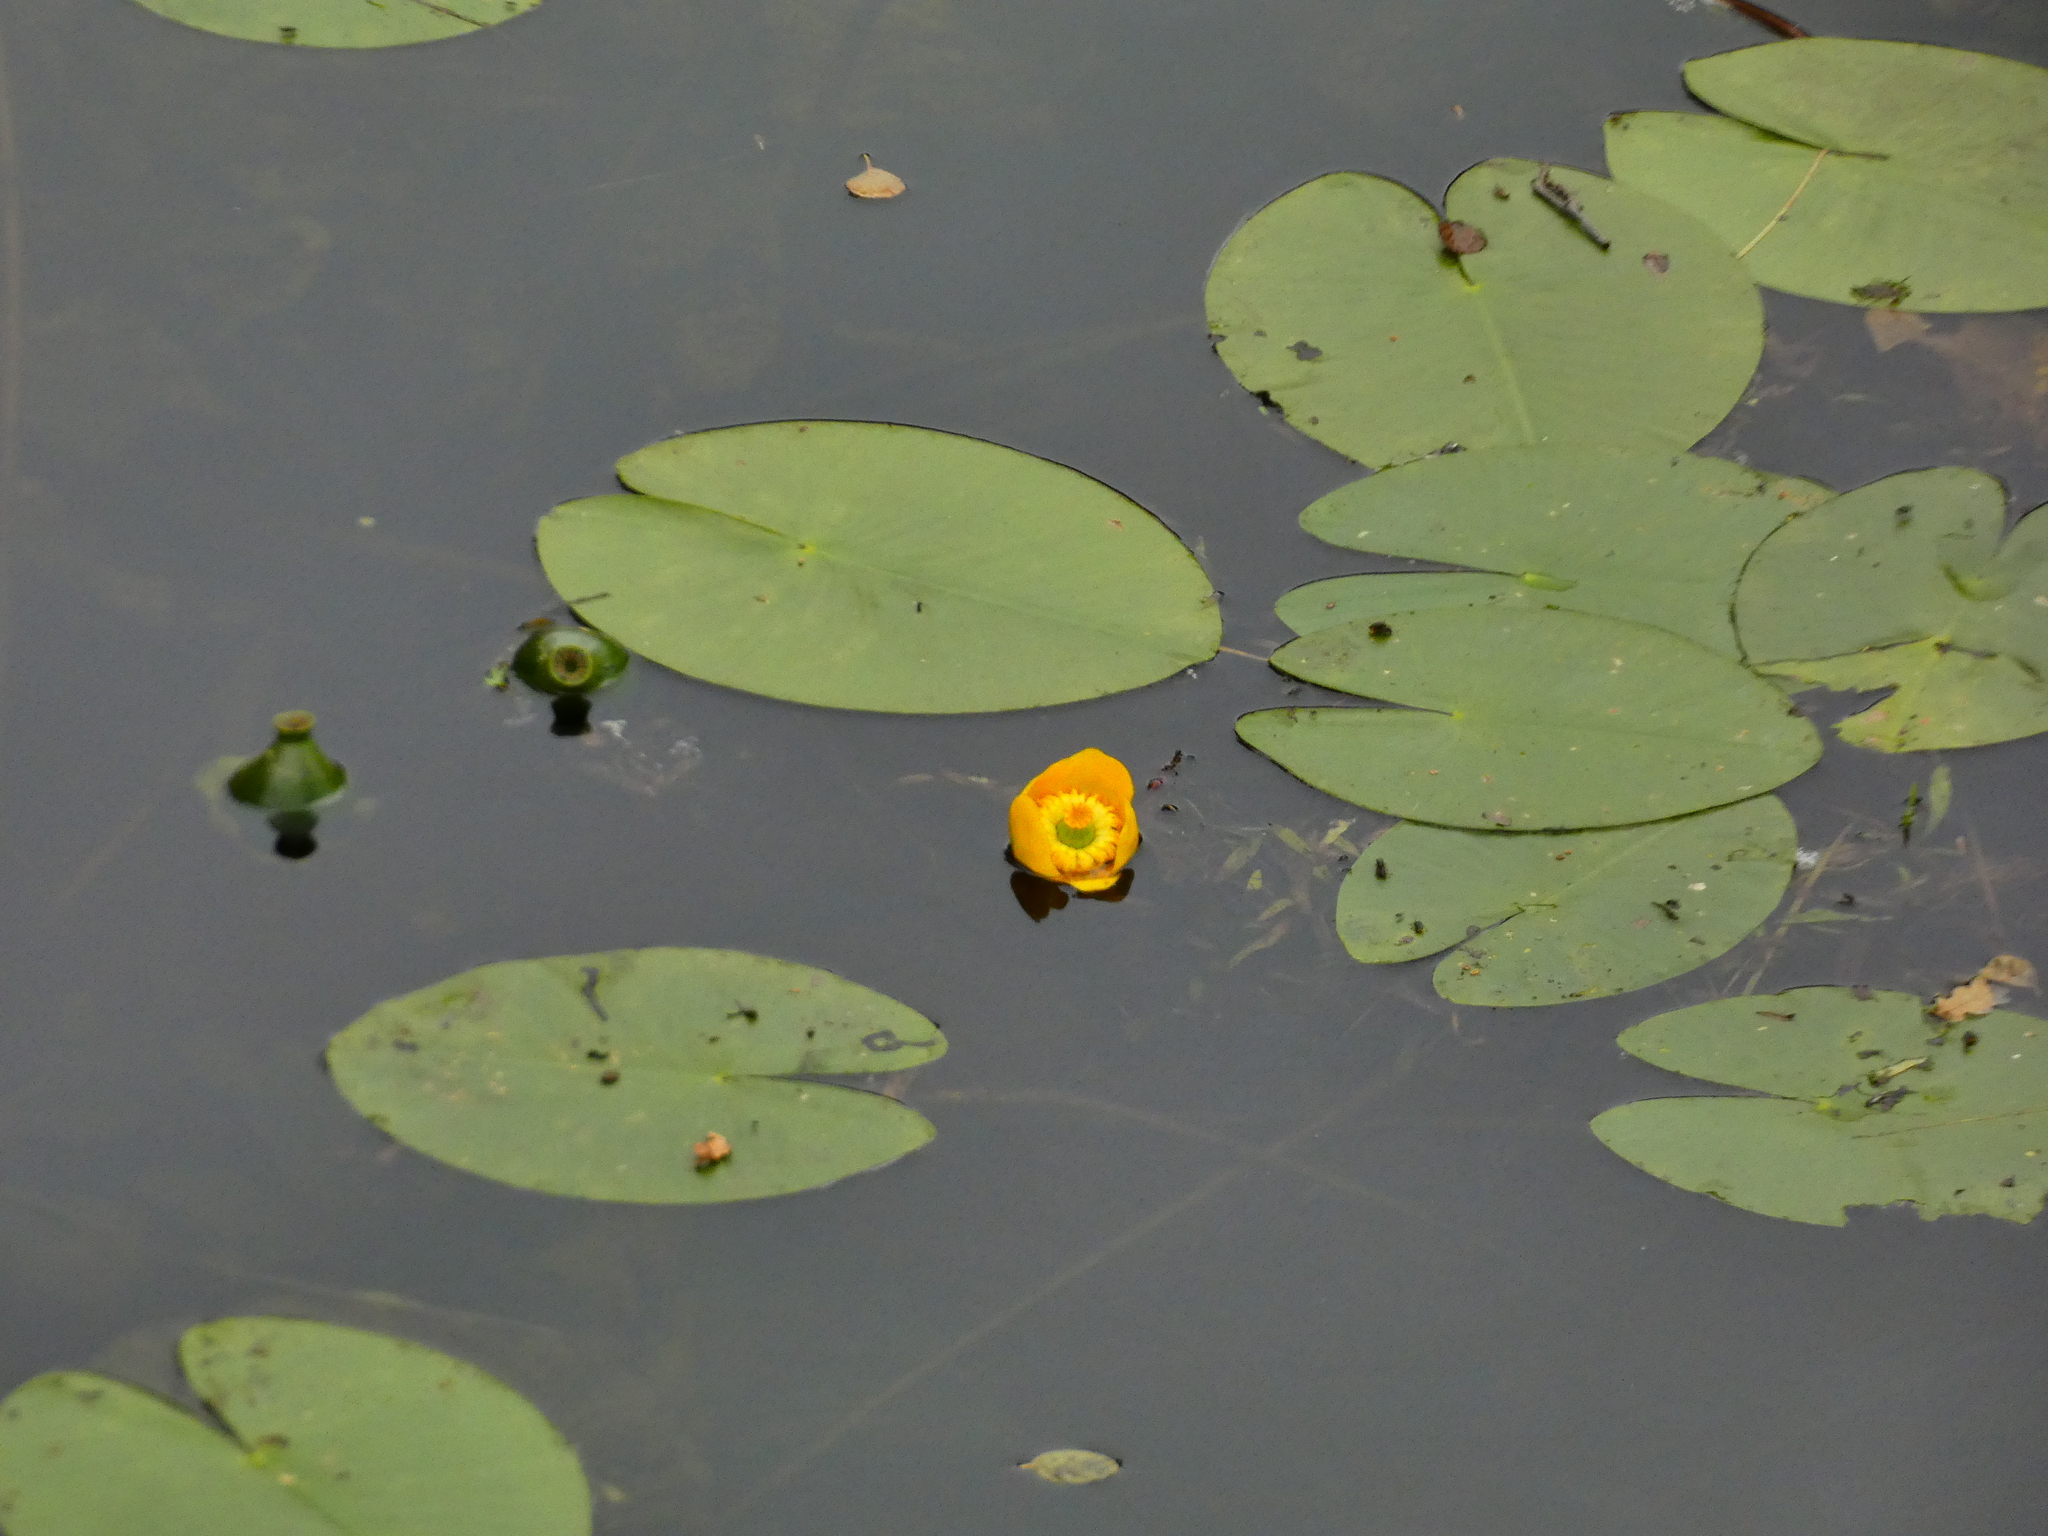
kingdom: Plantae
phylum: Tracheophyta
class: Magnoliopsida
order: Nymphaeales
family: Nymphaeaceae
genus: Nuphar
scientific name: Nuphar lutea
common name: Yellow water-lily
